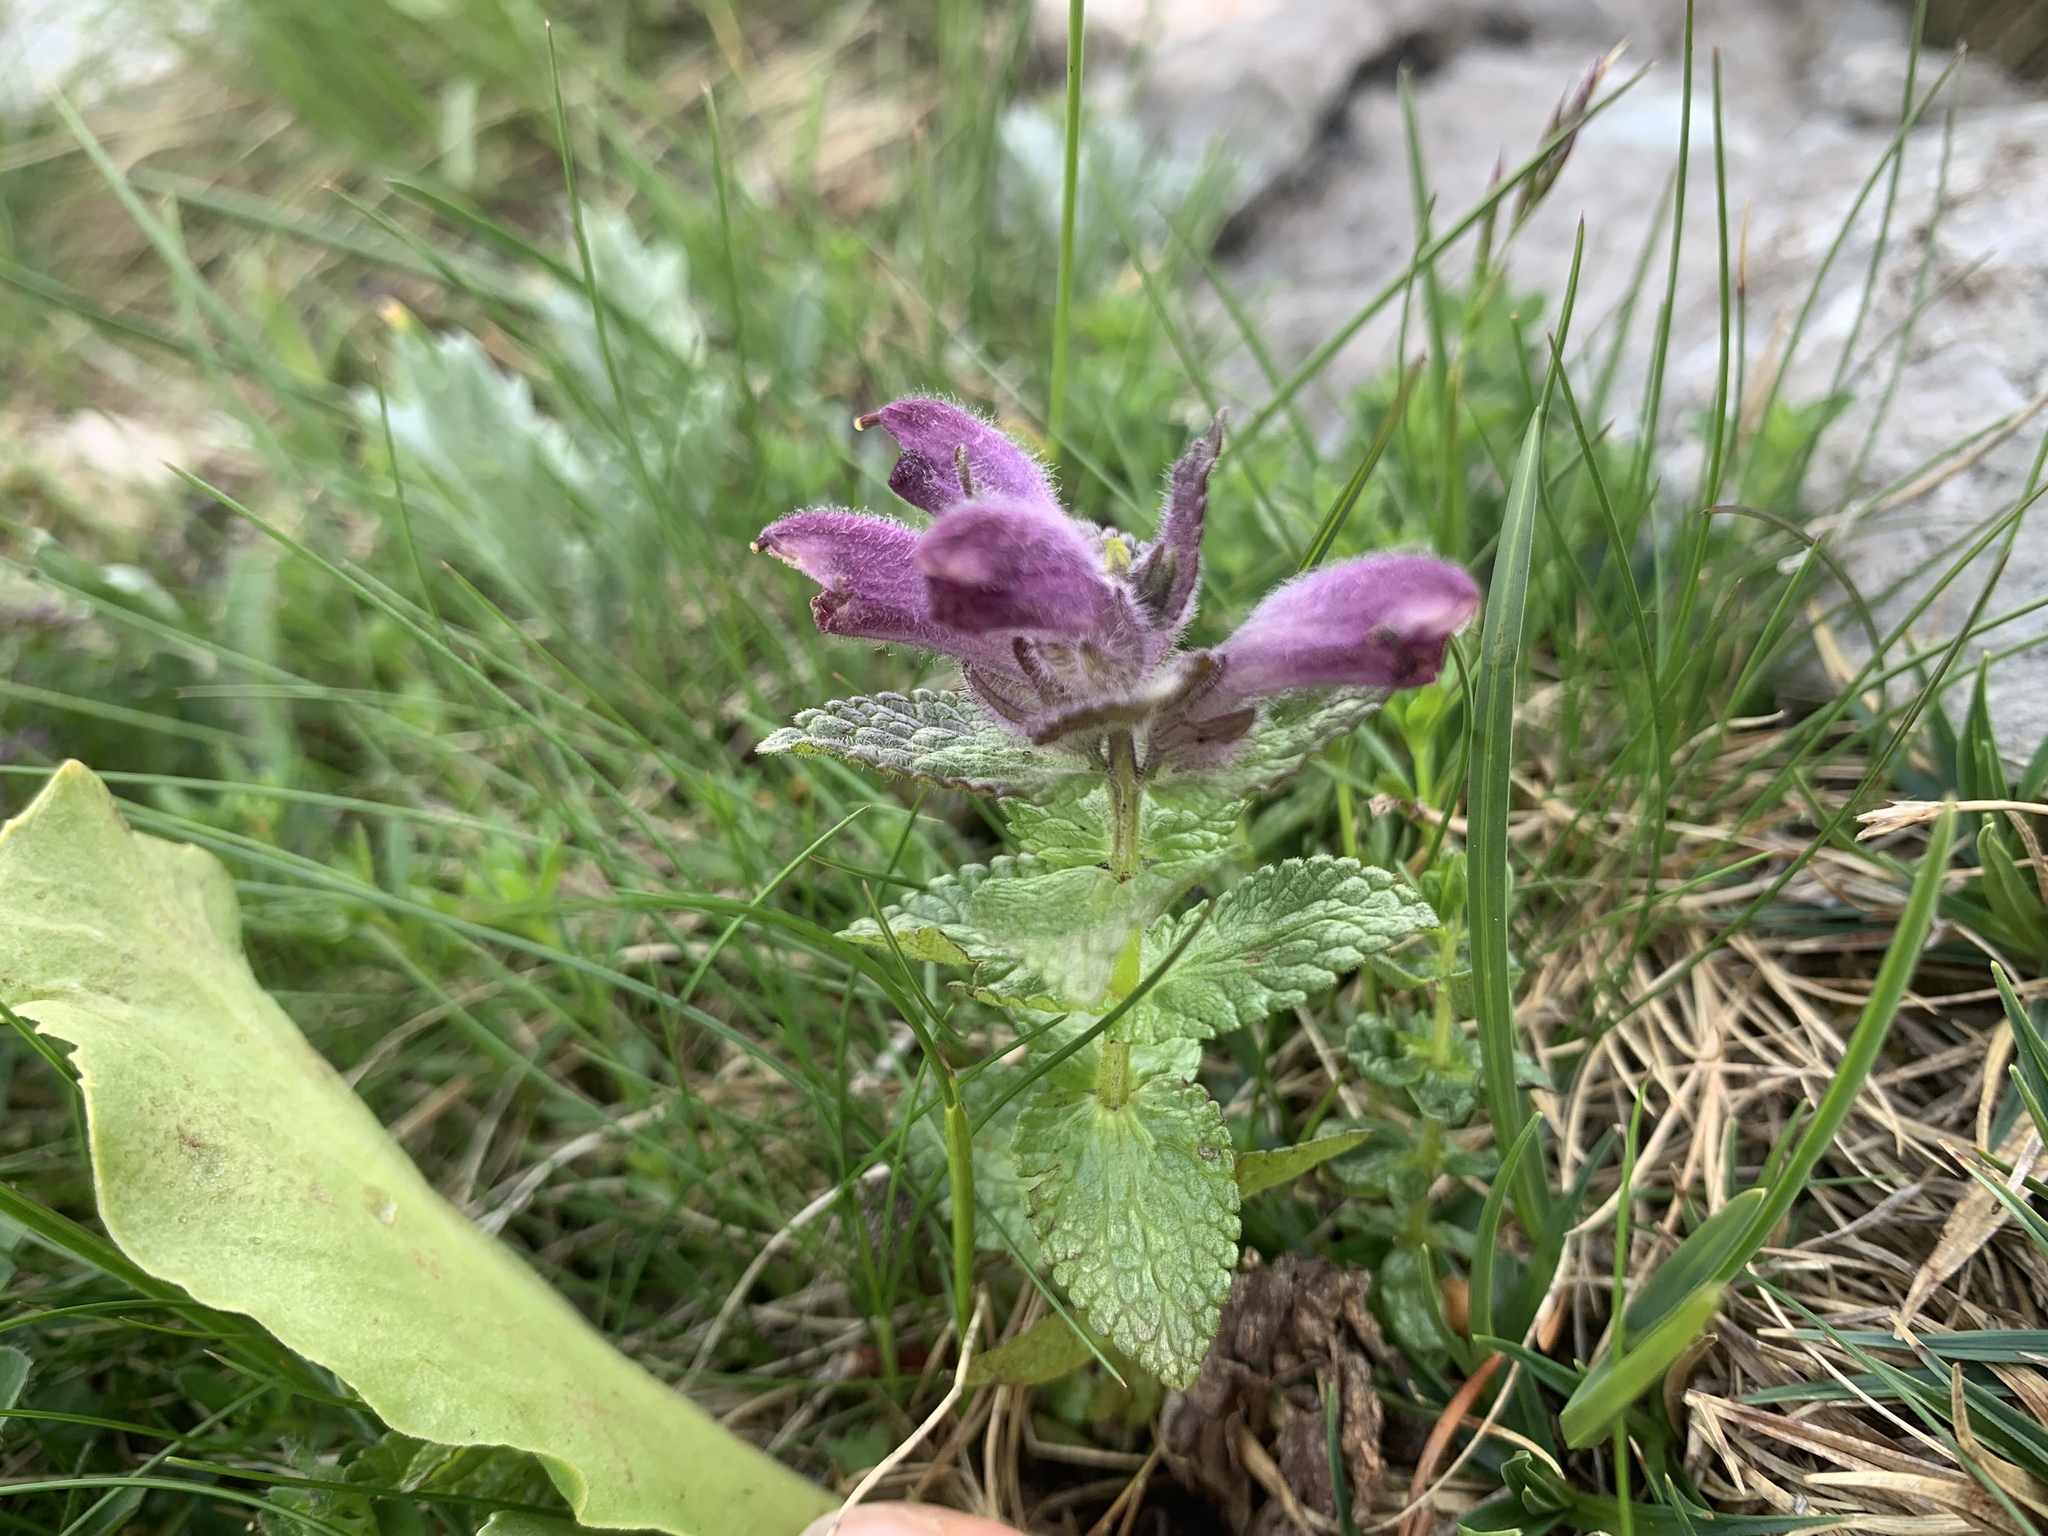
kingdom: Plantae
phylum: Tracheophyta
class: Magnoliopsida
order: Lamiales
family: Orobanchaceae
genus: Bartsia
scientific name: Bartsia alpina
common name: Alpine bartsia
